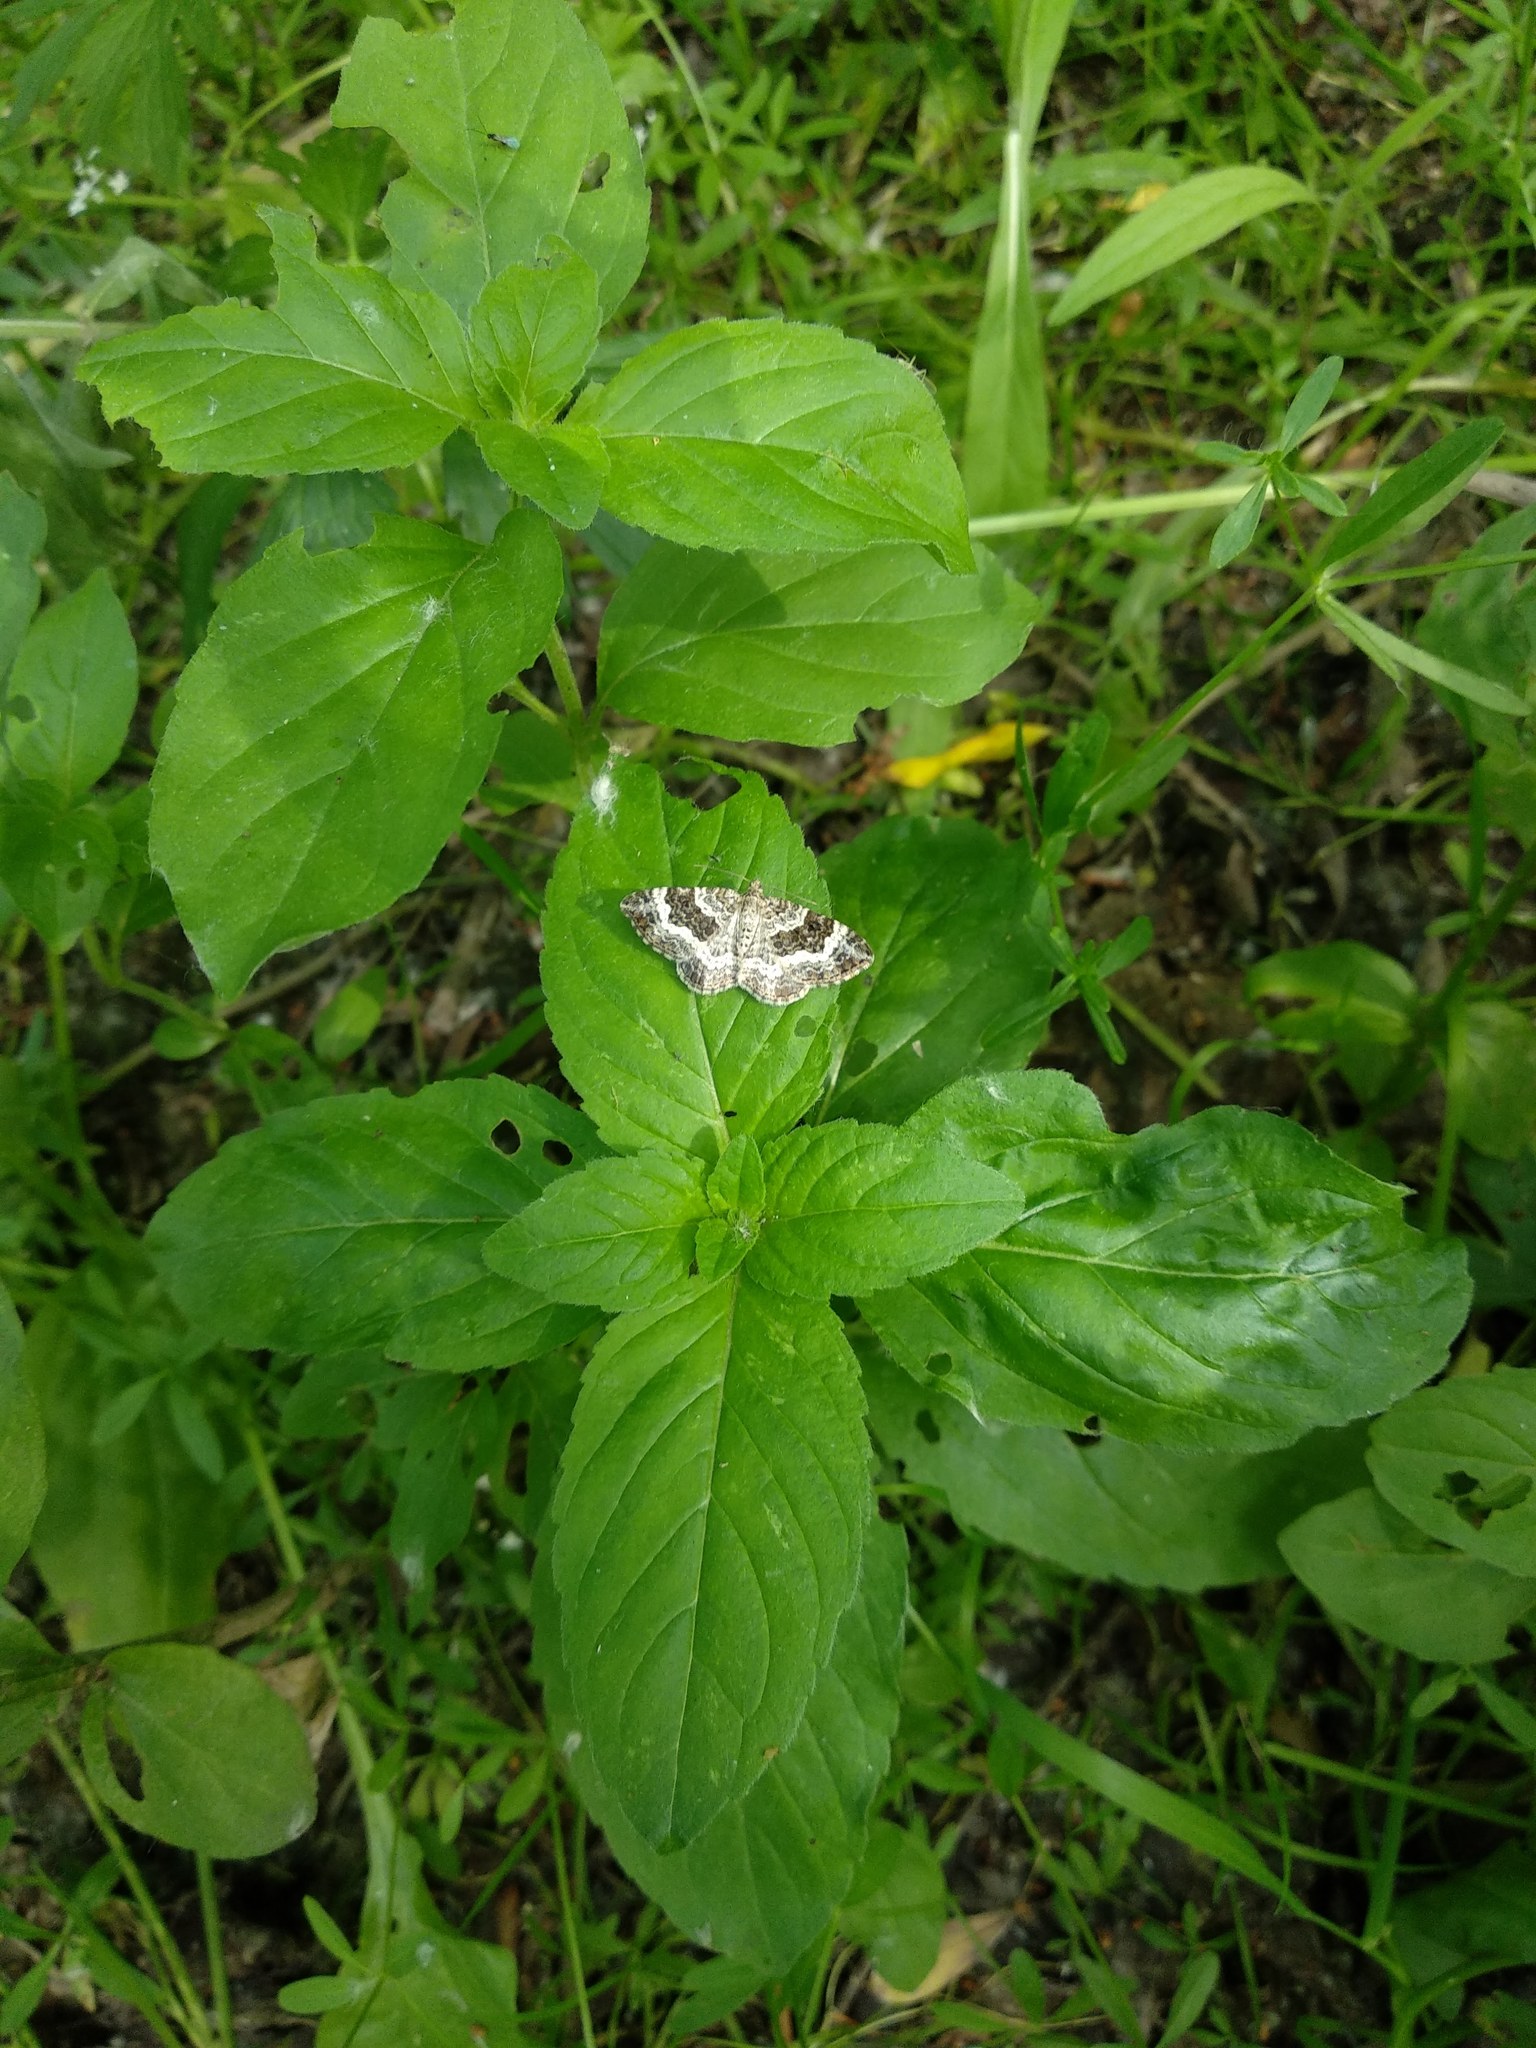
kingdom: Animalia
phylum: Arthropoda
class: Insecta
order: Lepidoptera
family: Geometridae
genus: Epirrhoe
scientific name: Epirrhoe alternata
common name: Common carpet
